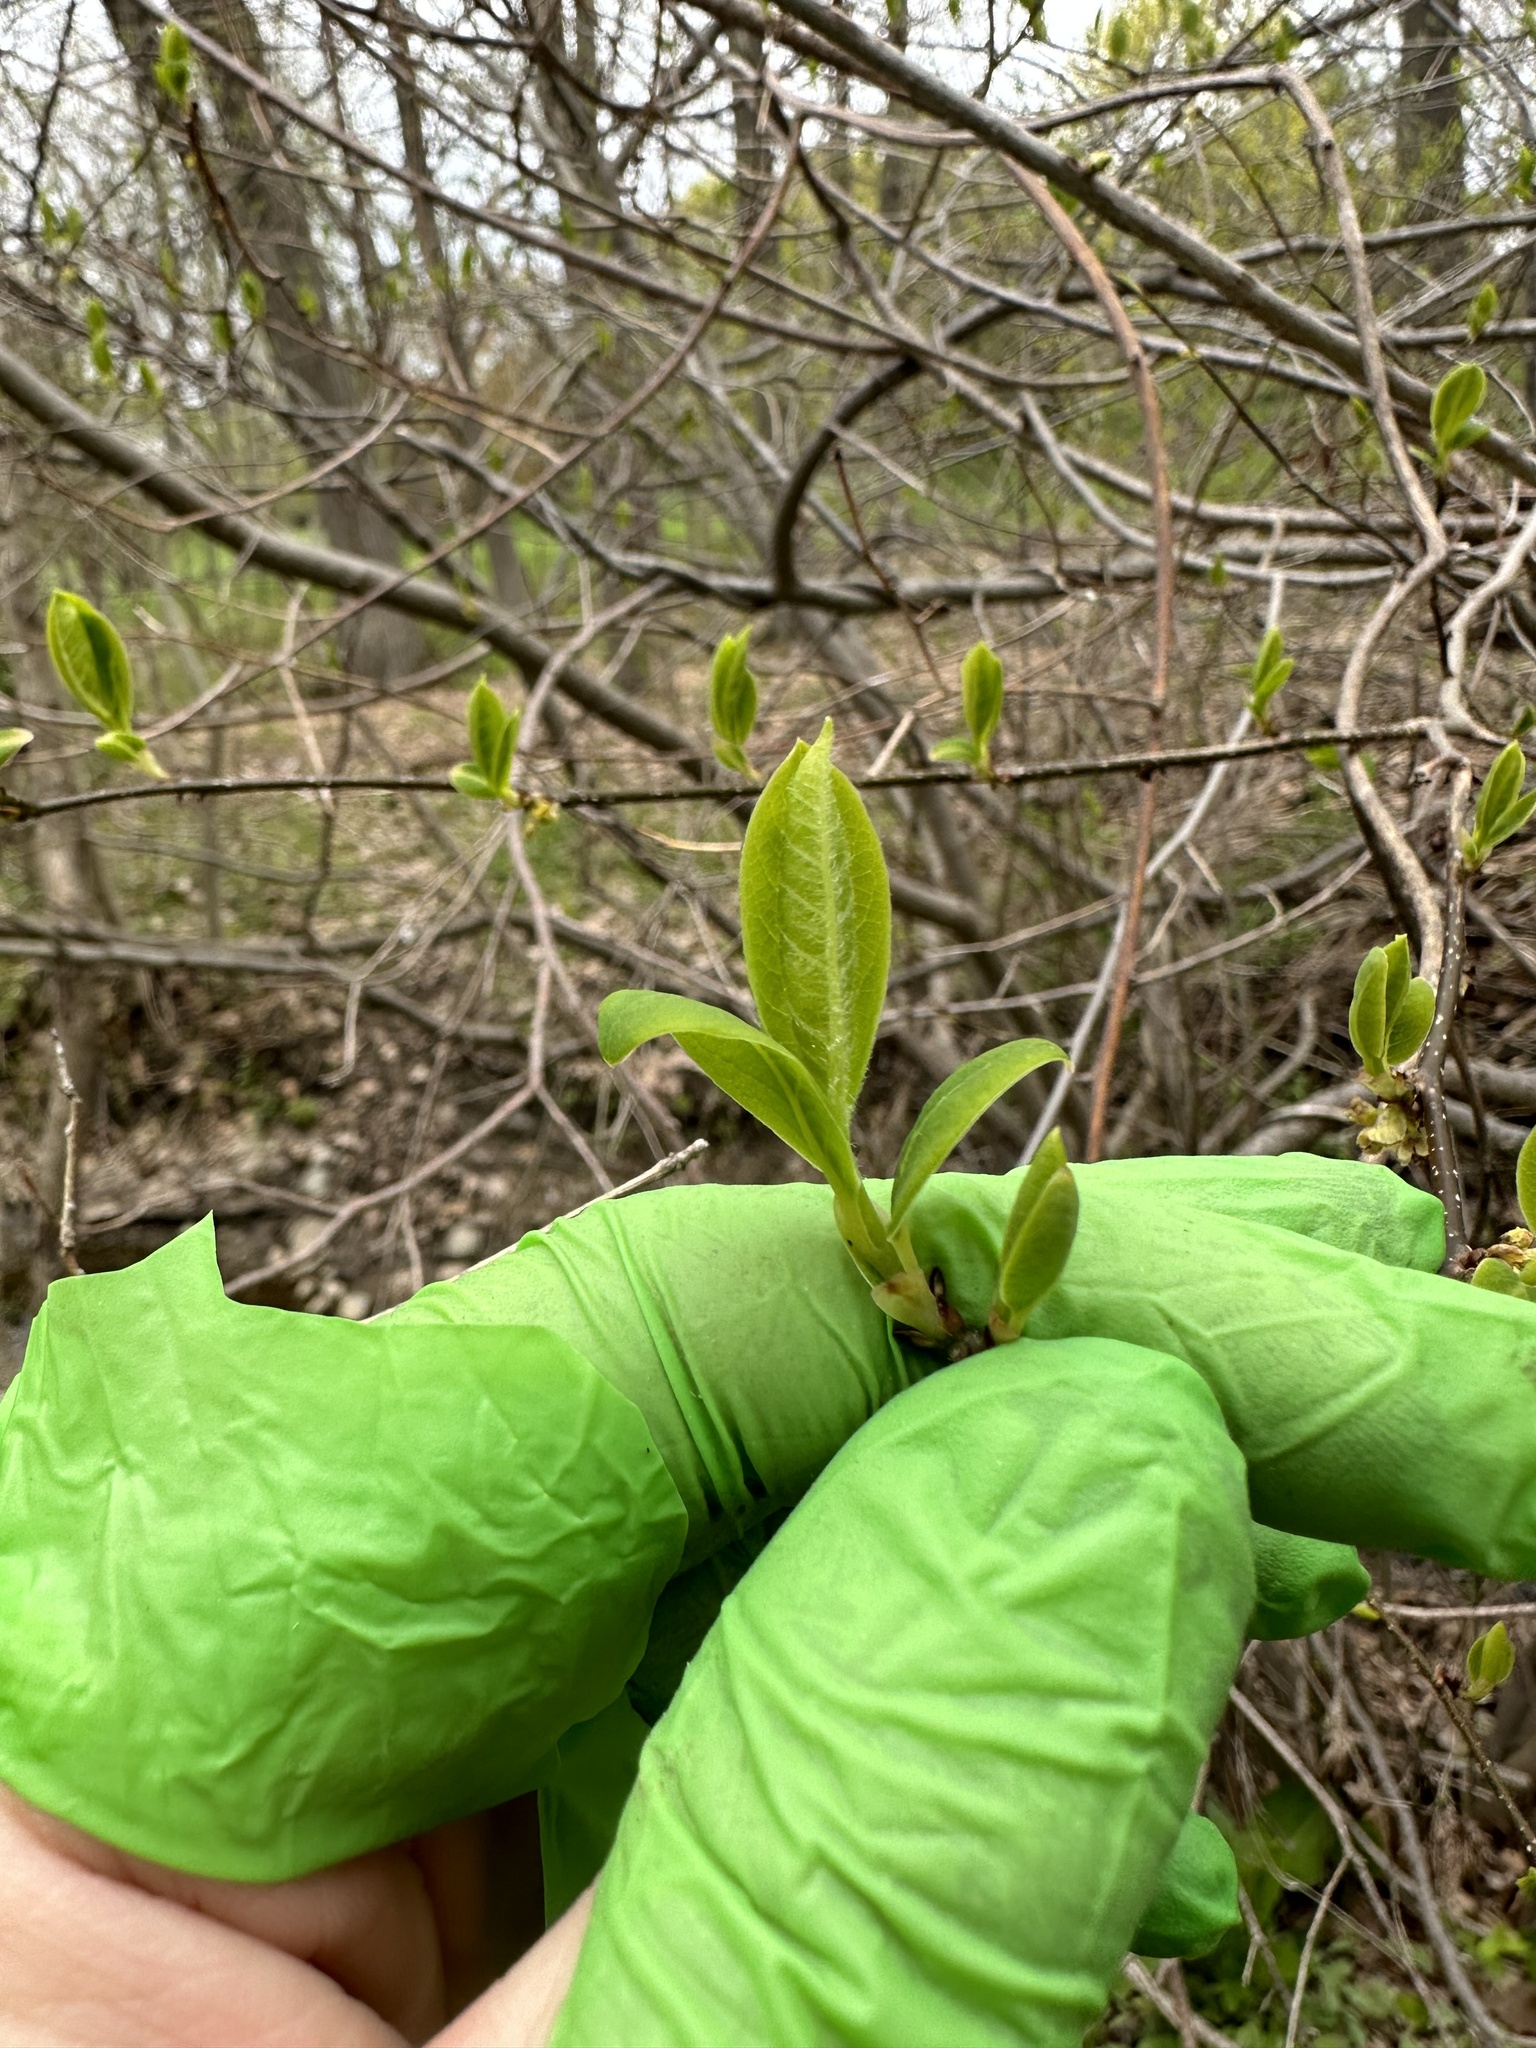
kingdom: Plantae
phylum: Tracheophyta
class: Magnoliopsida
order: Laurales
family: Lauraceae
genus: Lindera
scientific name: Lindera benzoin
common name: Spicebush
